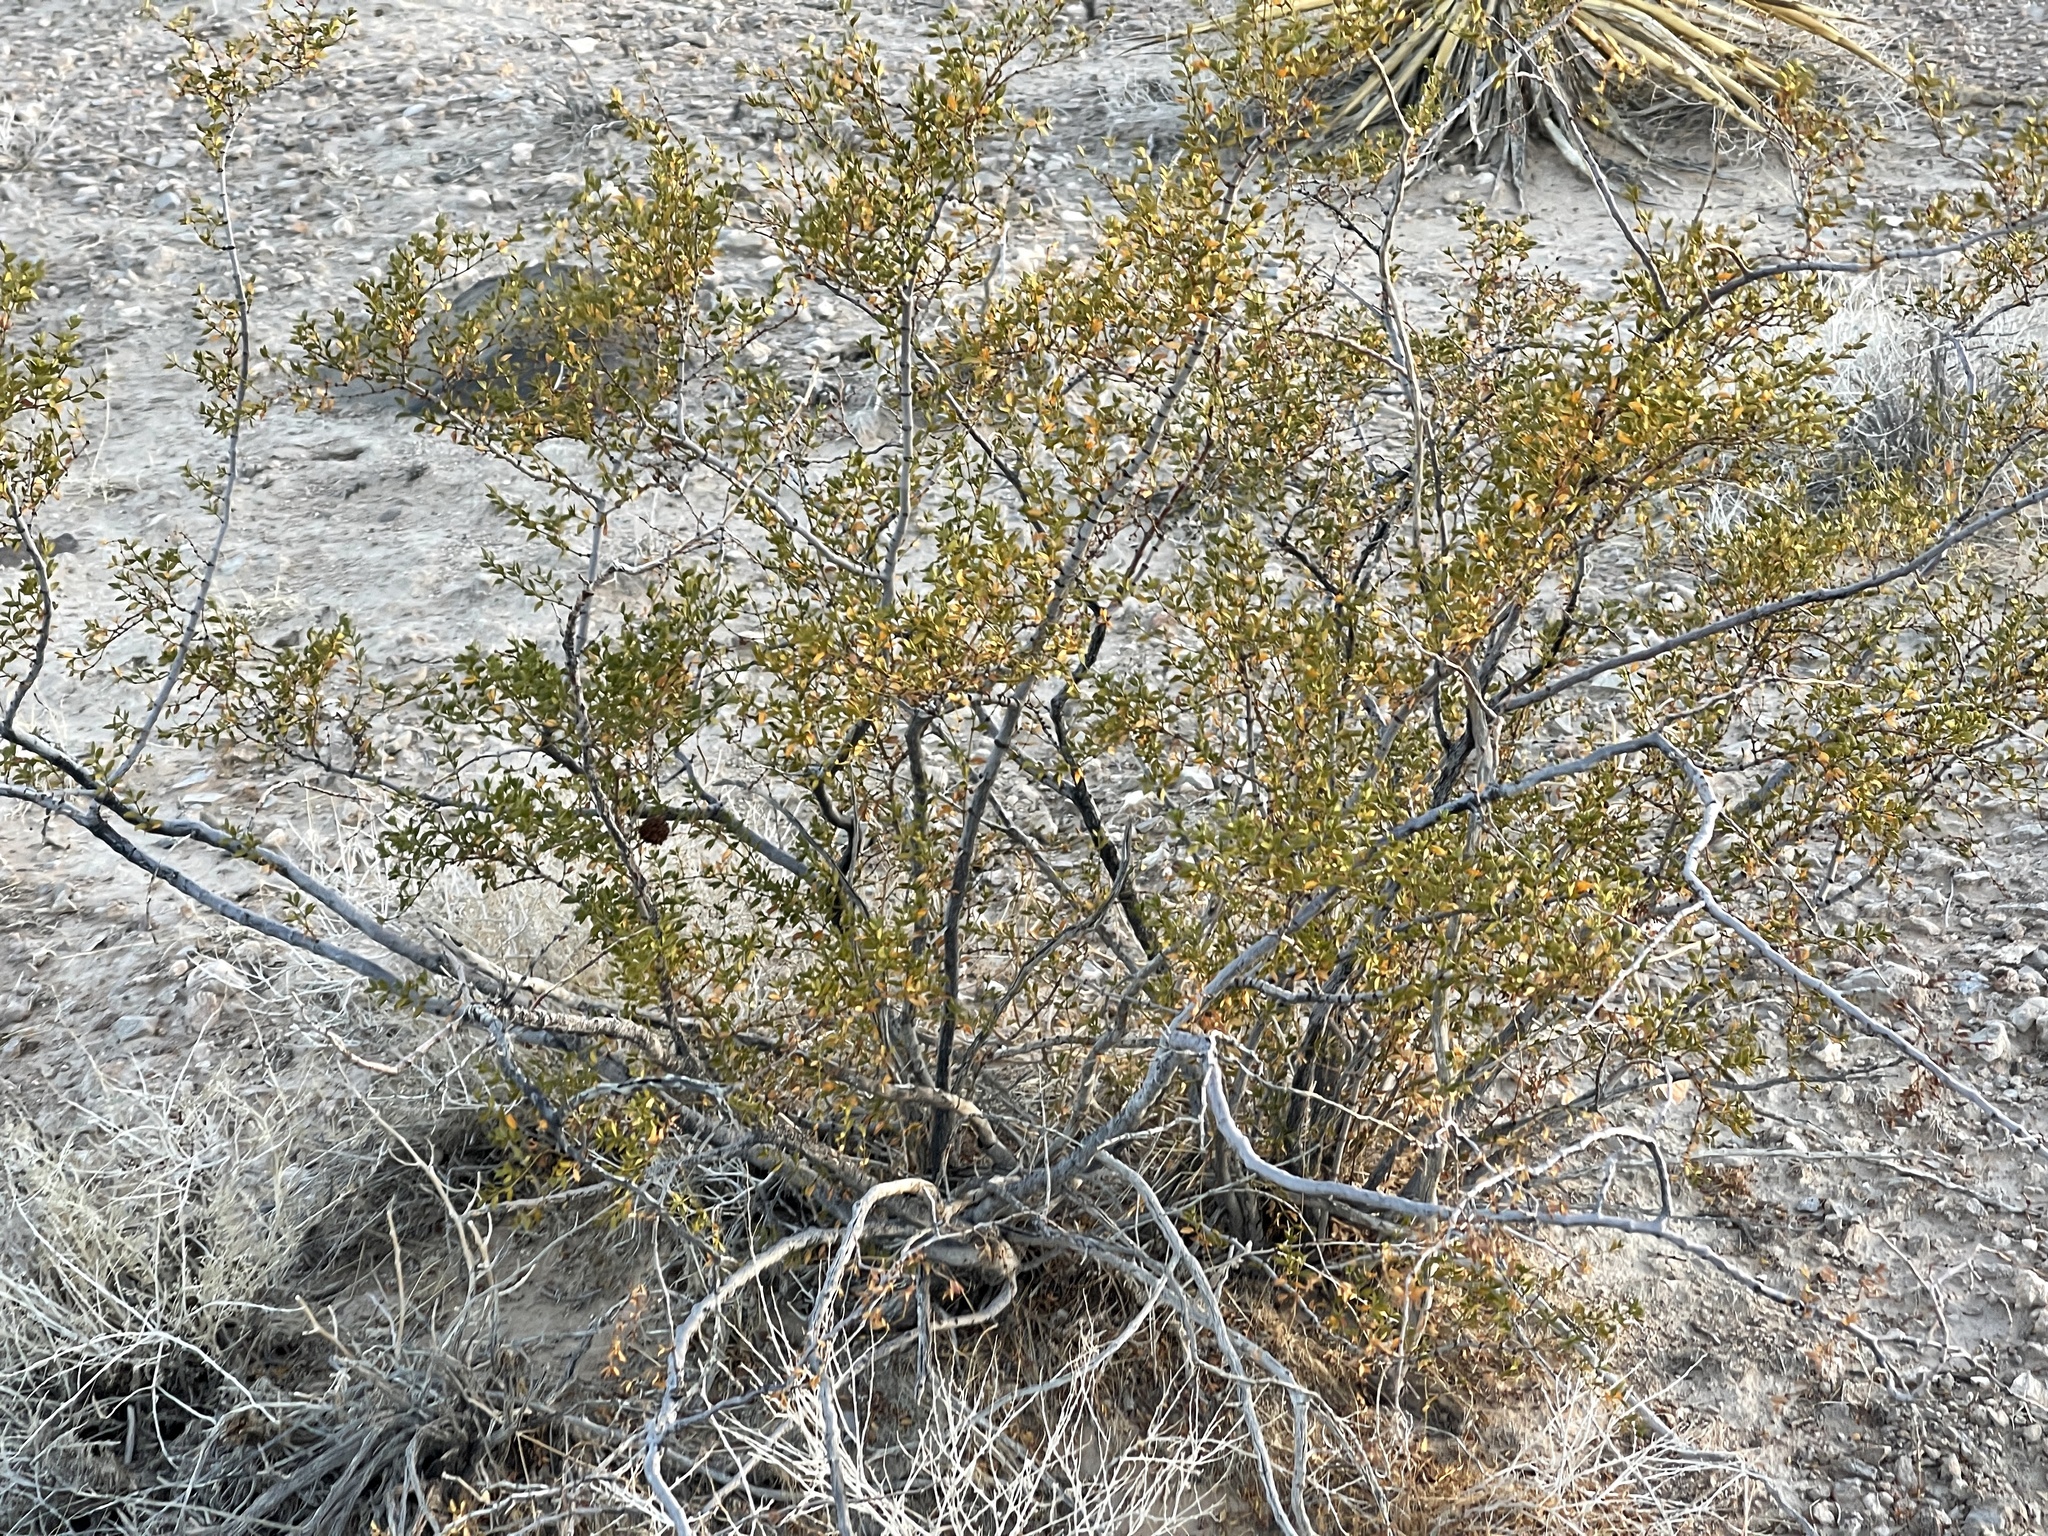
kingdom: Plantae
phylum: Tracheophyta
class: Magnoliopsida
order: Zygophyllales
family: Zygophyllaceae
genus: Larrea
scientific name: Larrea tridentata
